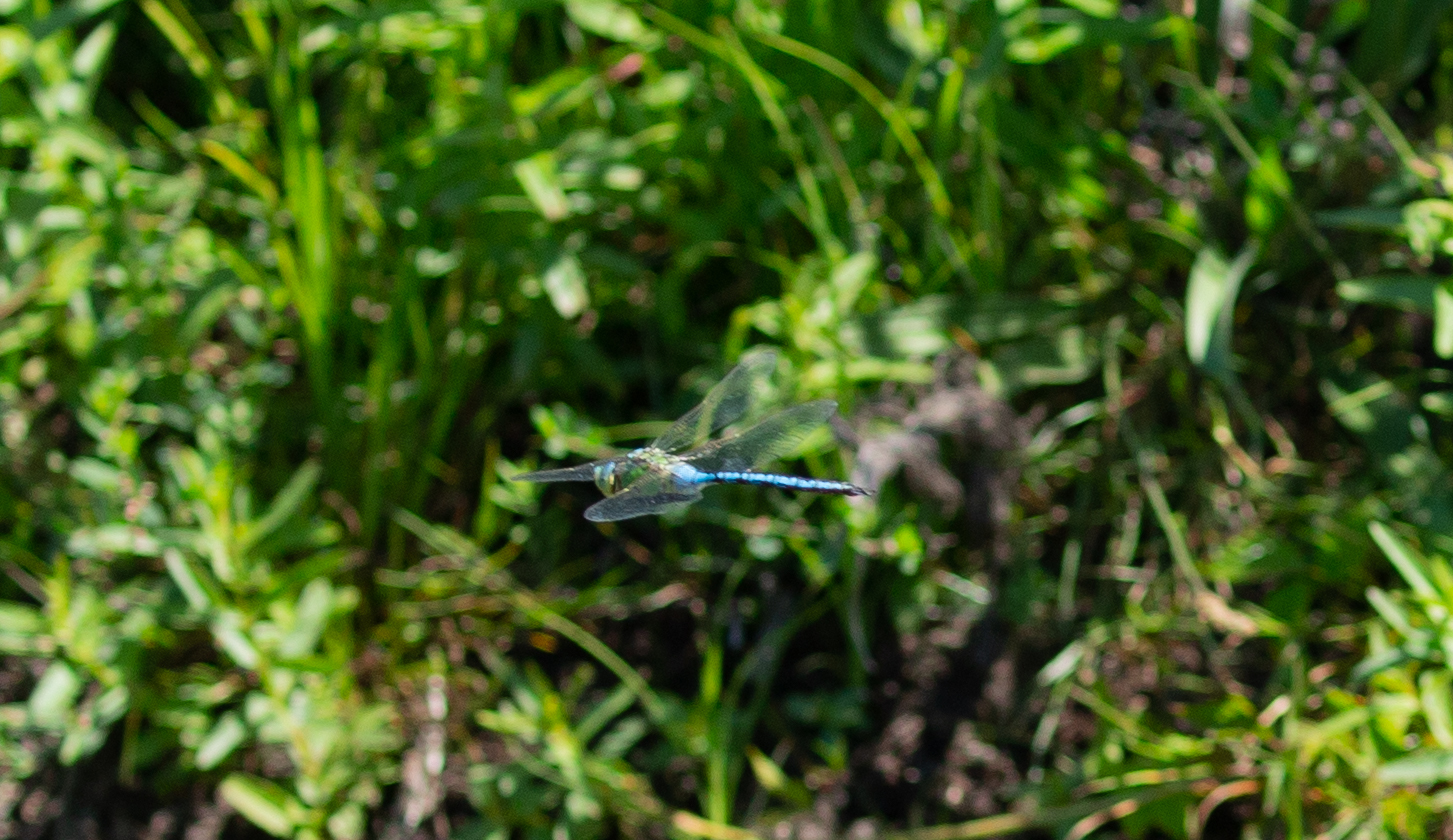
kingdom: Animalia
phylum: Arthropoda
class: Insecta
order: Odonata
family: Aeshnidae
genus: Anax
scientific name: Anax imperator
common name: Emperor dragonfly
